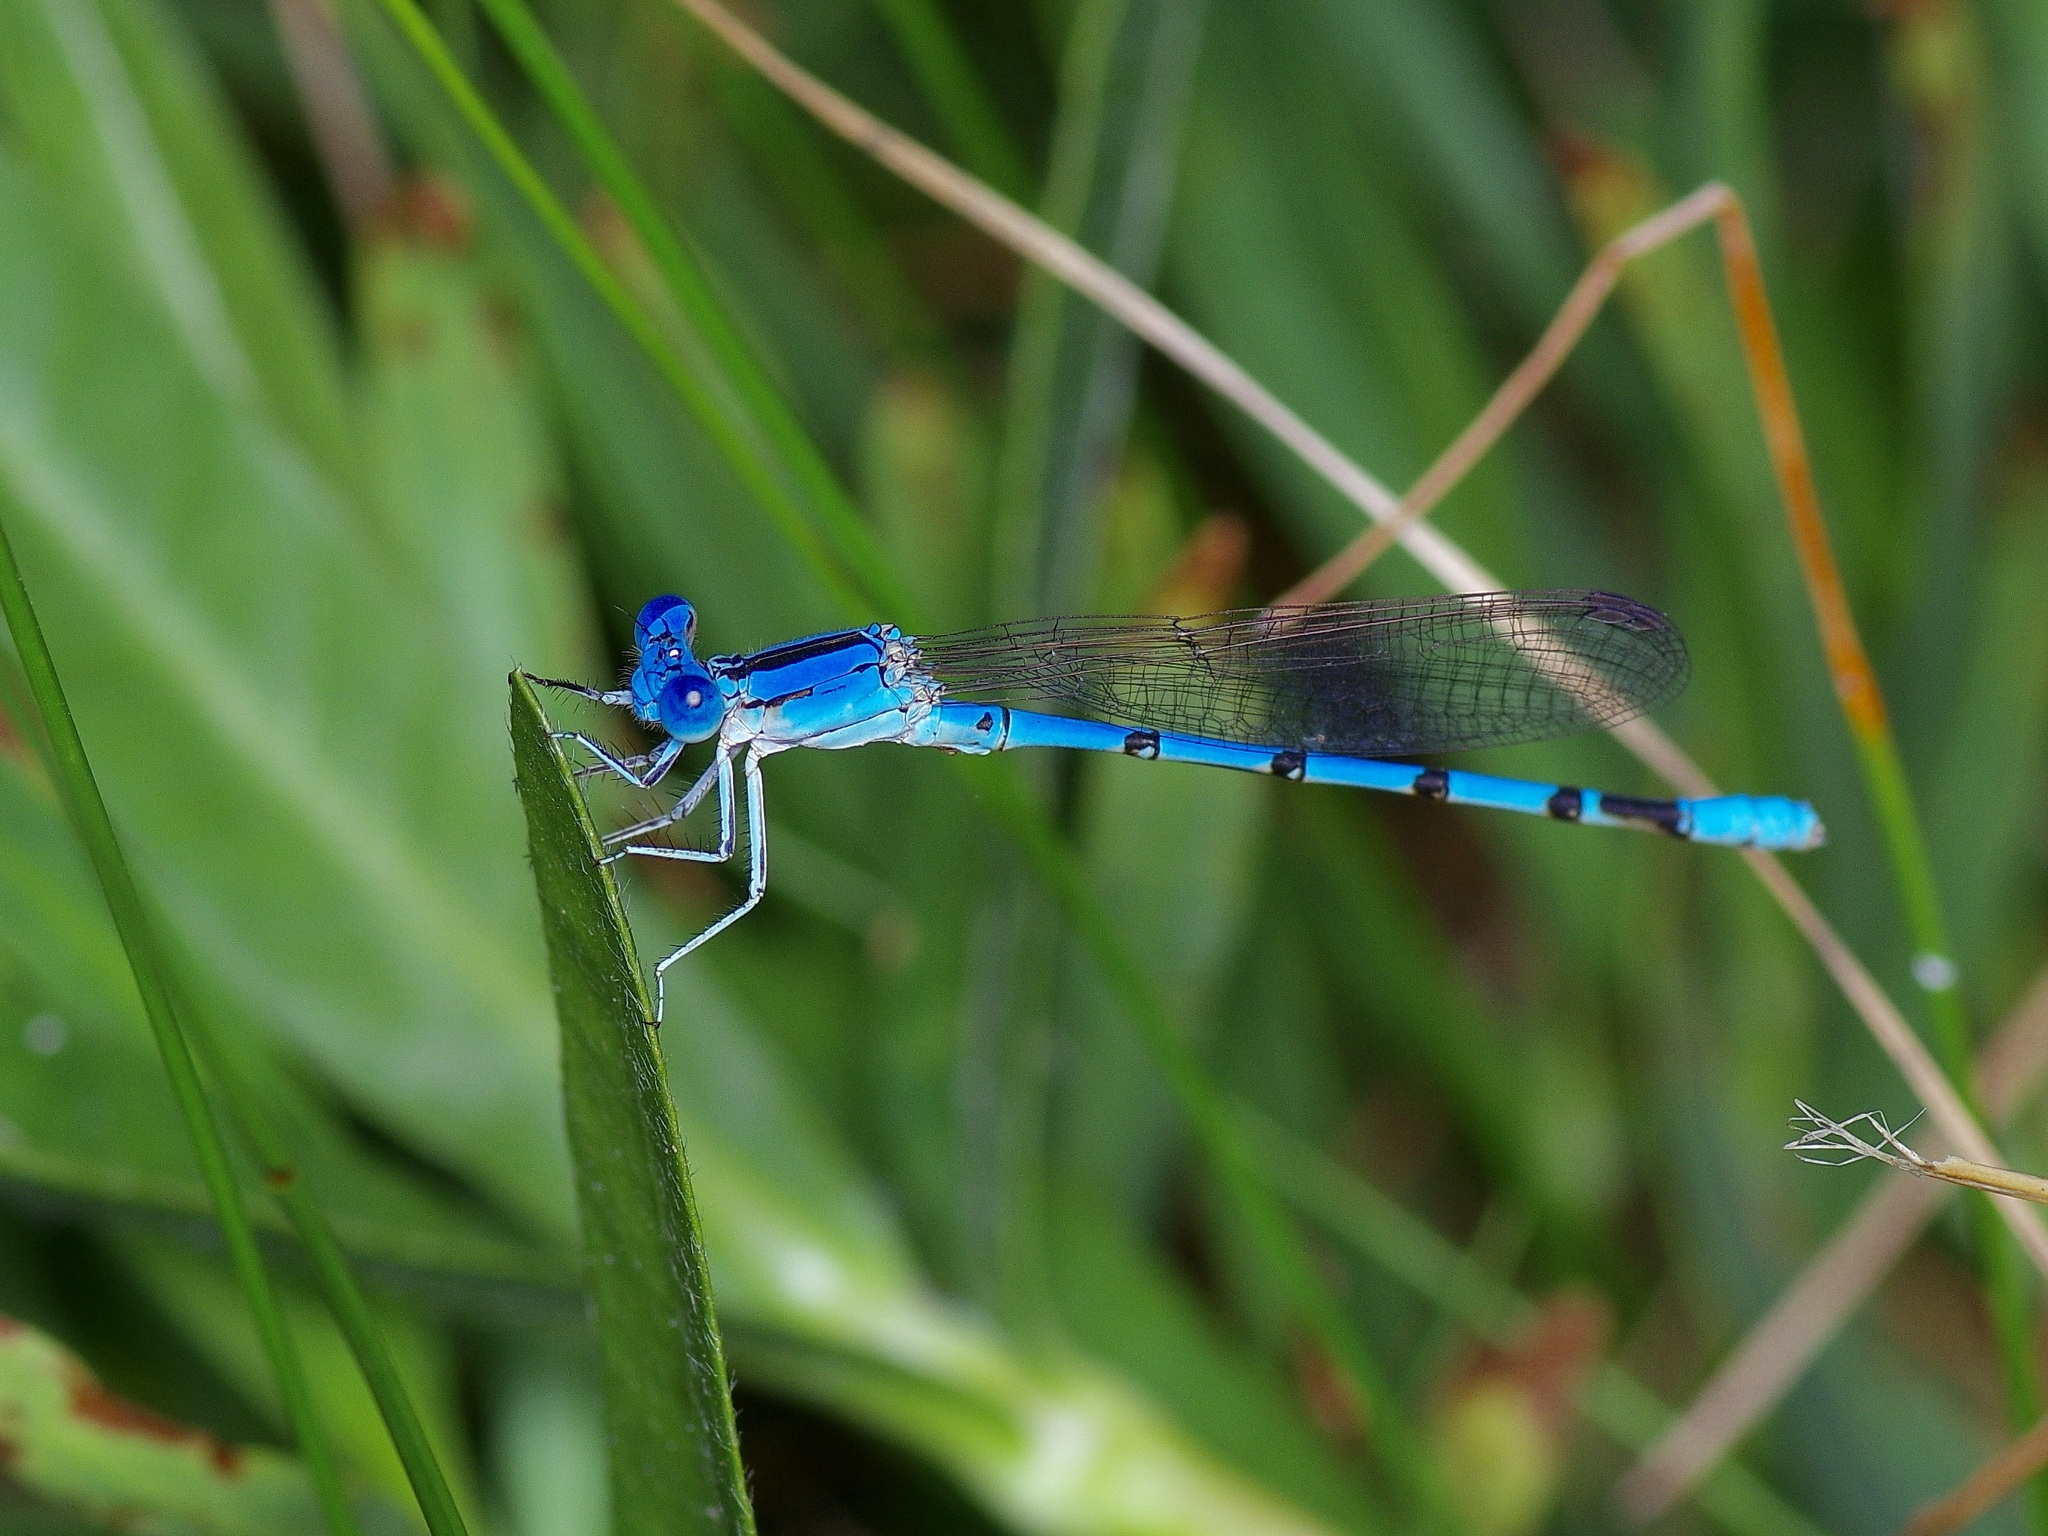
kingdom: Animalia
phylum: Arthropoda
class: Insecta
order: Odonata
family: Coenagrionidae
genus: Argia
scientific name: Argia nahuana
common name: Aztec dancer
